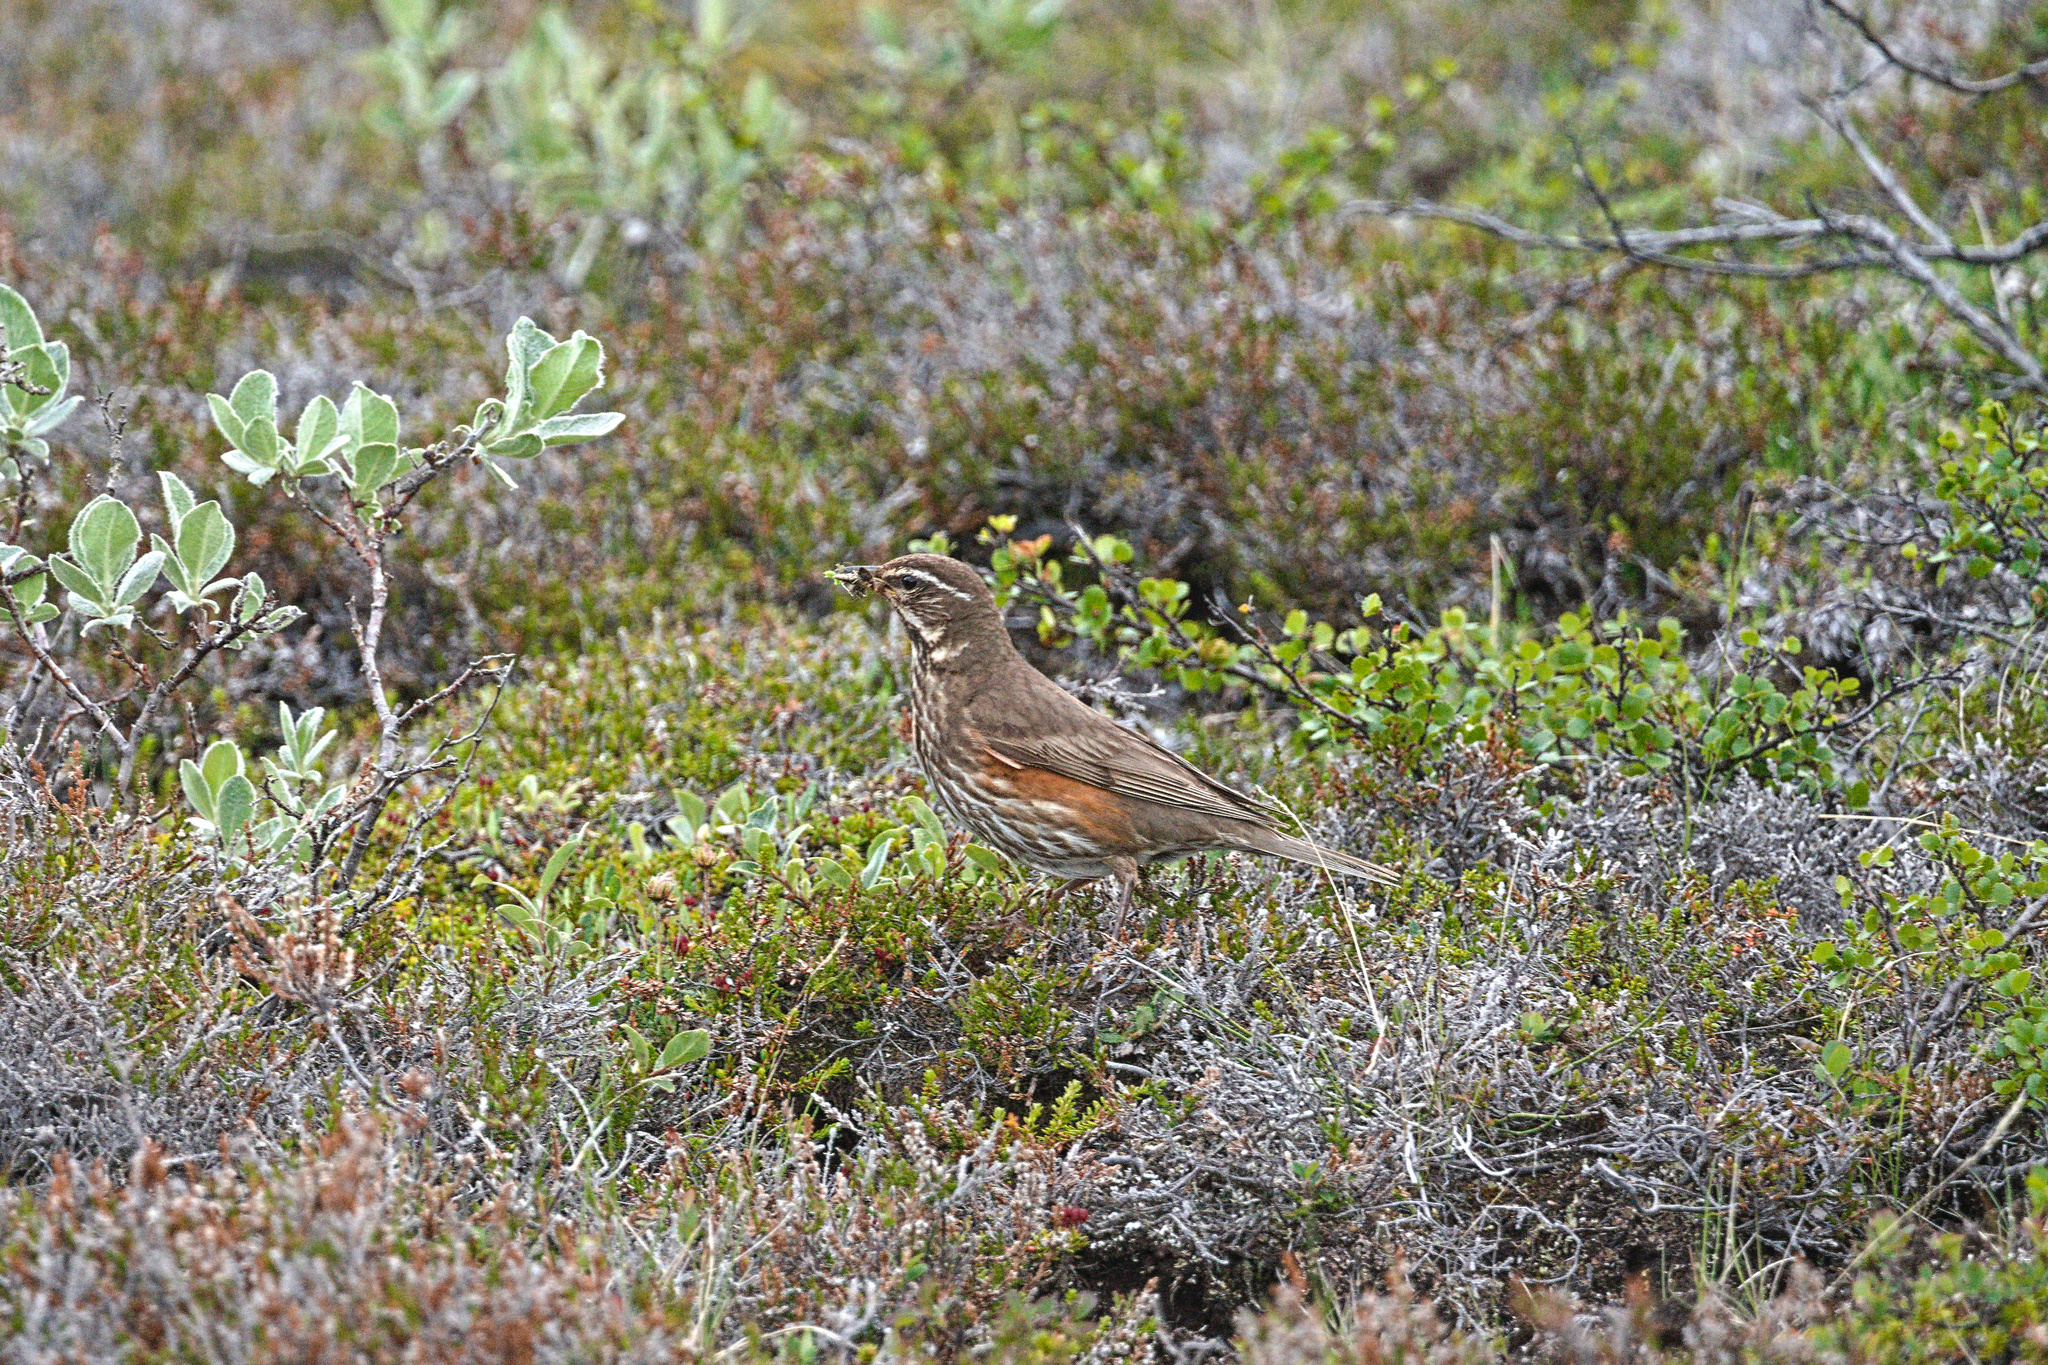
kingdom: Animalia
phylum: Chordata
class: Aves
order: Passeriformes
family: Turdidae
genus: Turdus
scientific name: Turdus iliacus
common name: Redwing
